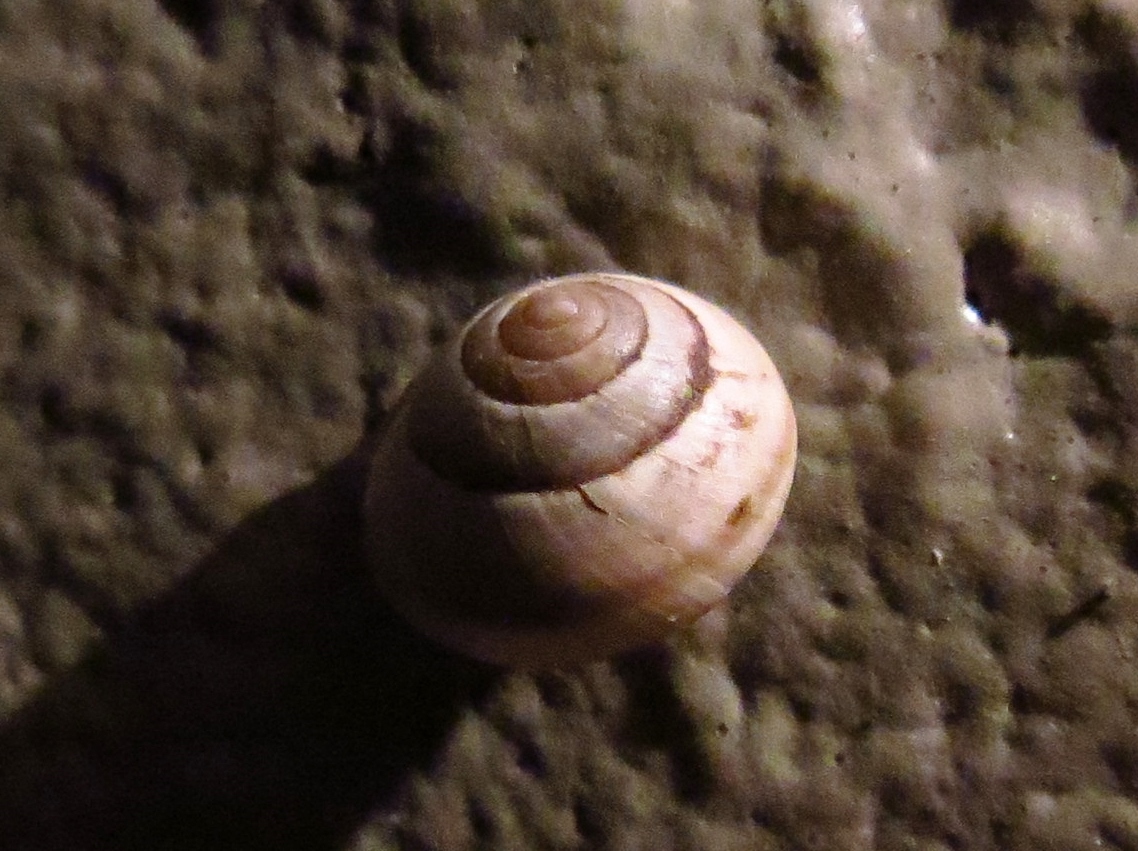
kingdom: Animalia
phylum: Mollusca
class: Gastropoda
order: Stylommatophora
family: Camaenidae
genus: Bradybaena
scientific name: Bradybaena similaris
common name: Asian trampsnail
